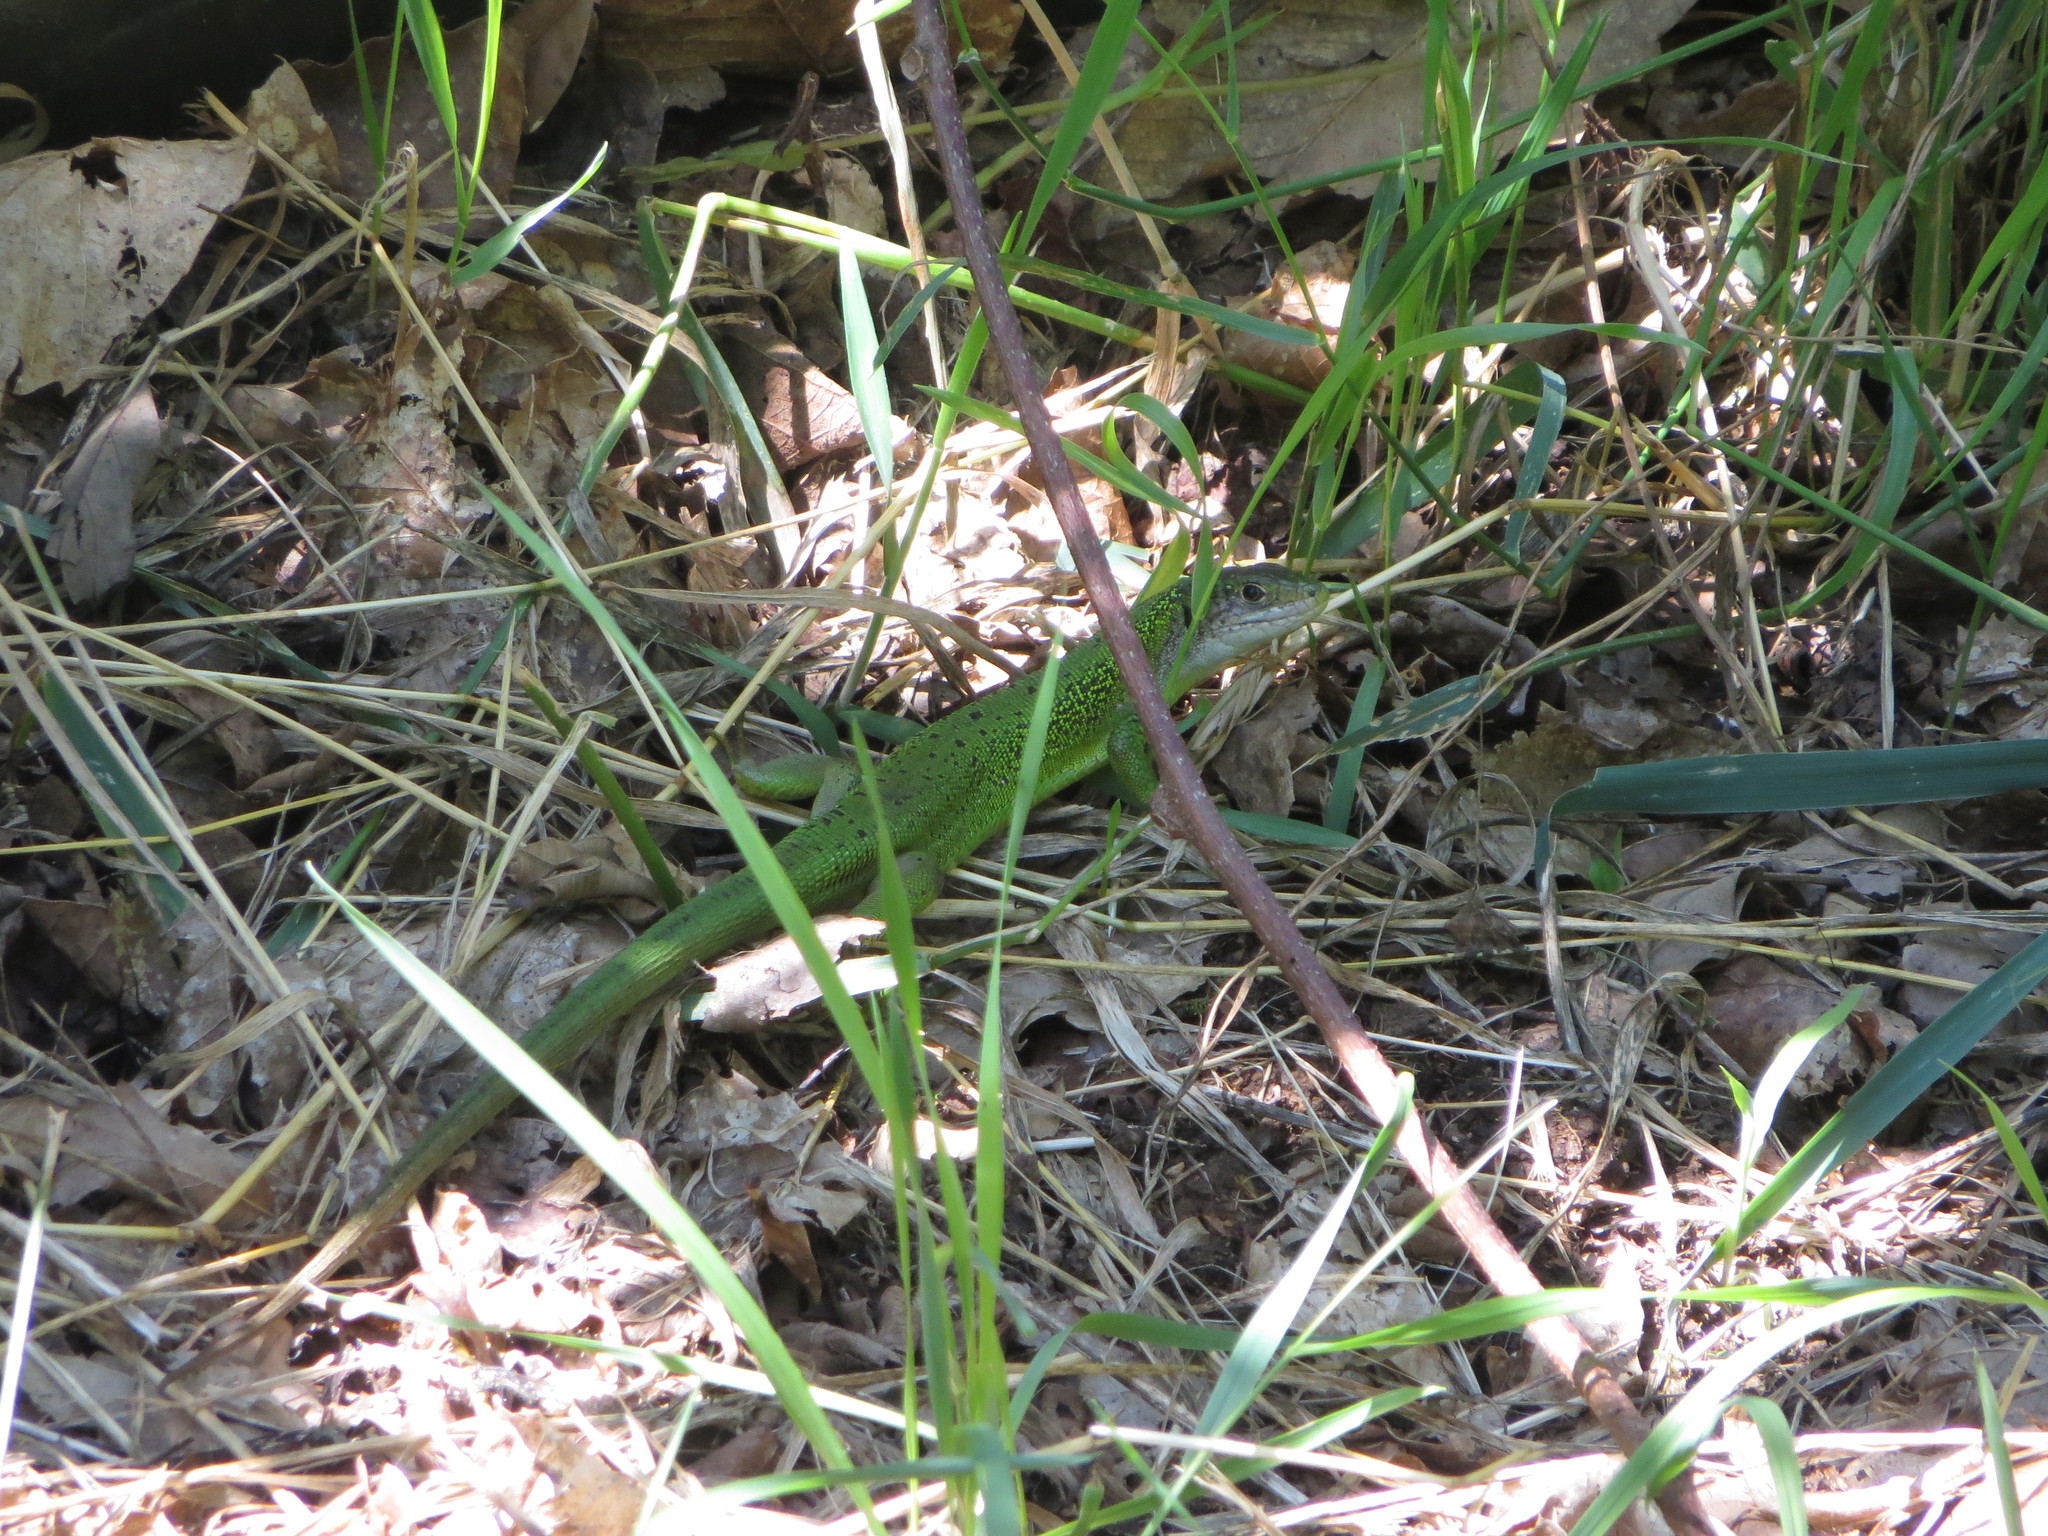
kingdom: Animalia
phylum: Chordata
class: Squamata
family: Lacertidae
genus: Lacerta
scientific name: Lacerta bilineata
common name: Western green lizard
